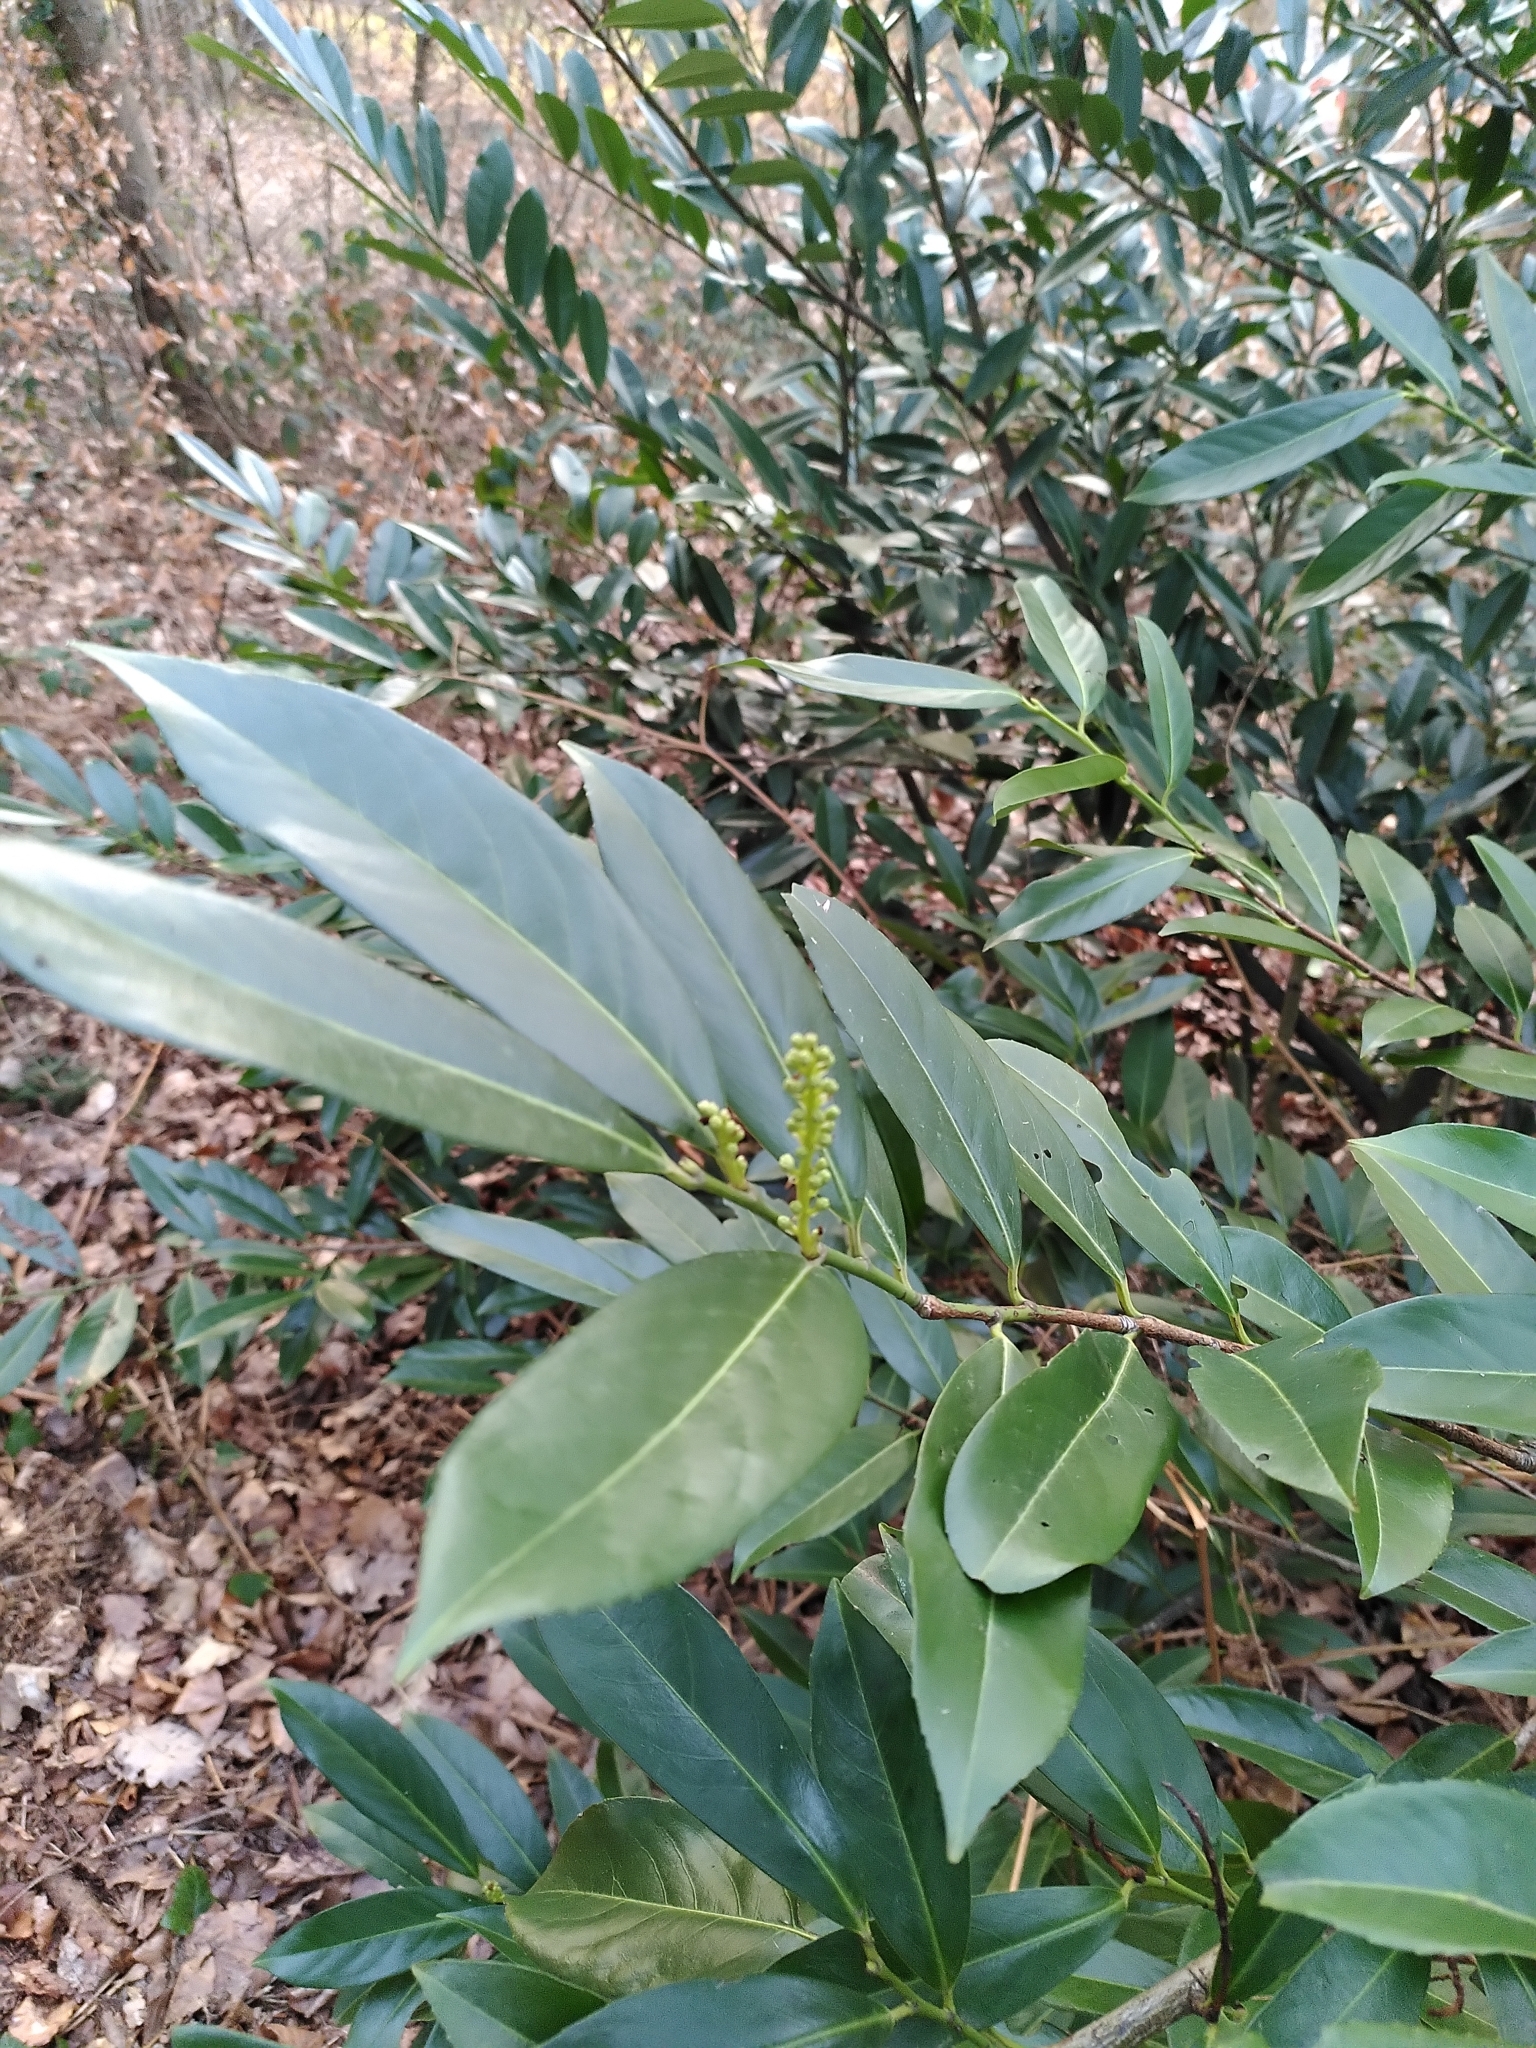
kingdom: Plantae
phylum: Tracheophyta
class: Magnoliopsida
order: Rosales
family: Rosaceae
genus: Prunus
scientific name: Prunus laurocerasus
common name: Cherry laurel
